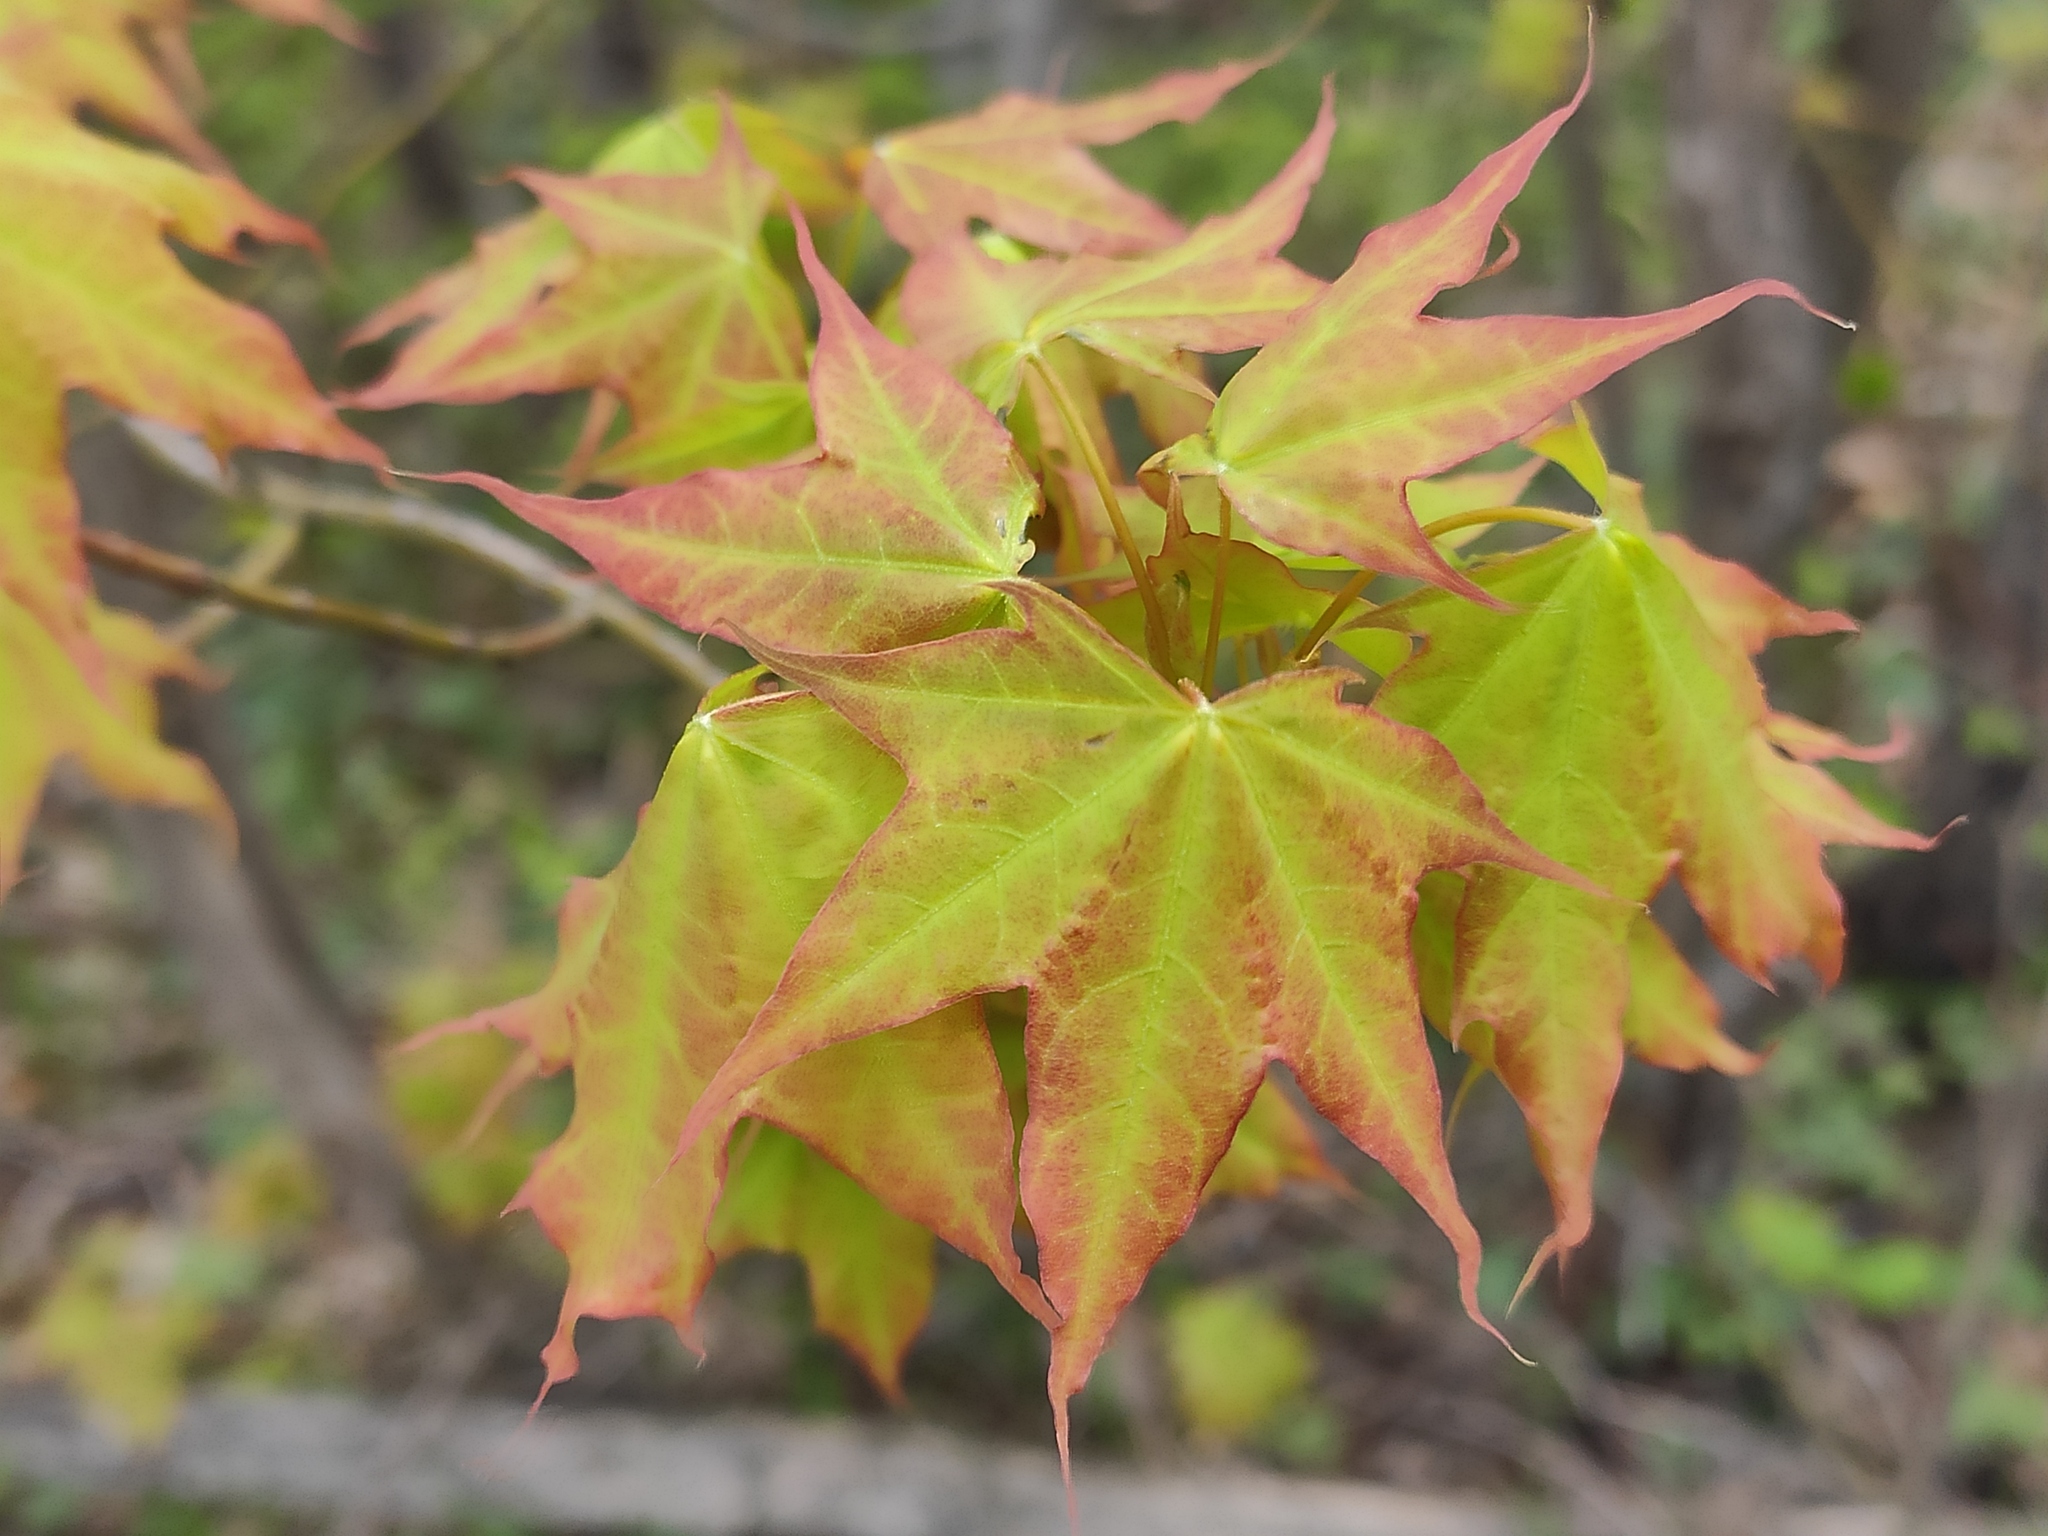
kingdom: Plantae
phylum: Tracheophyta
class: Magnoliopsida
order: Sapindales
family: Sapindaceae
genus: Acer
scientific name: Acer cappadocicum
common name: Cappadocian maple
